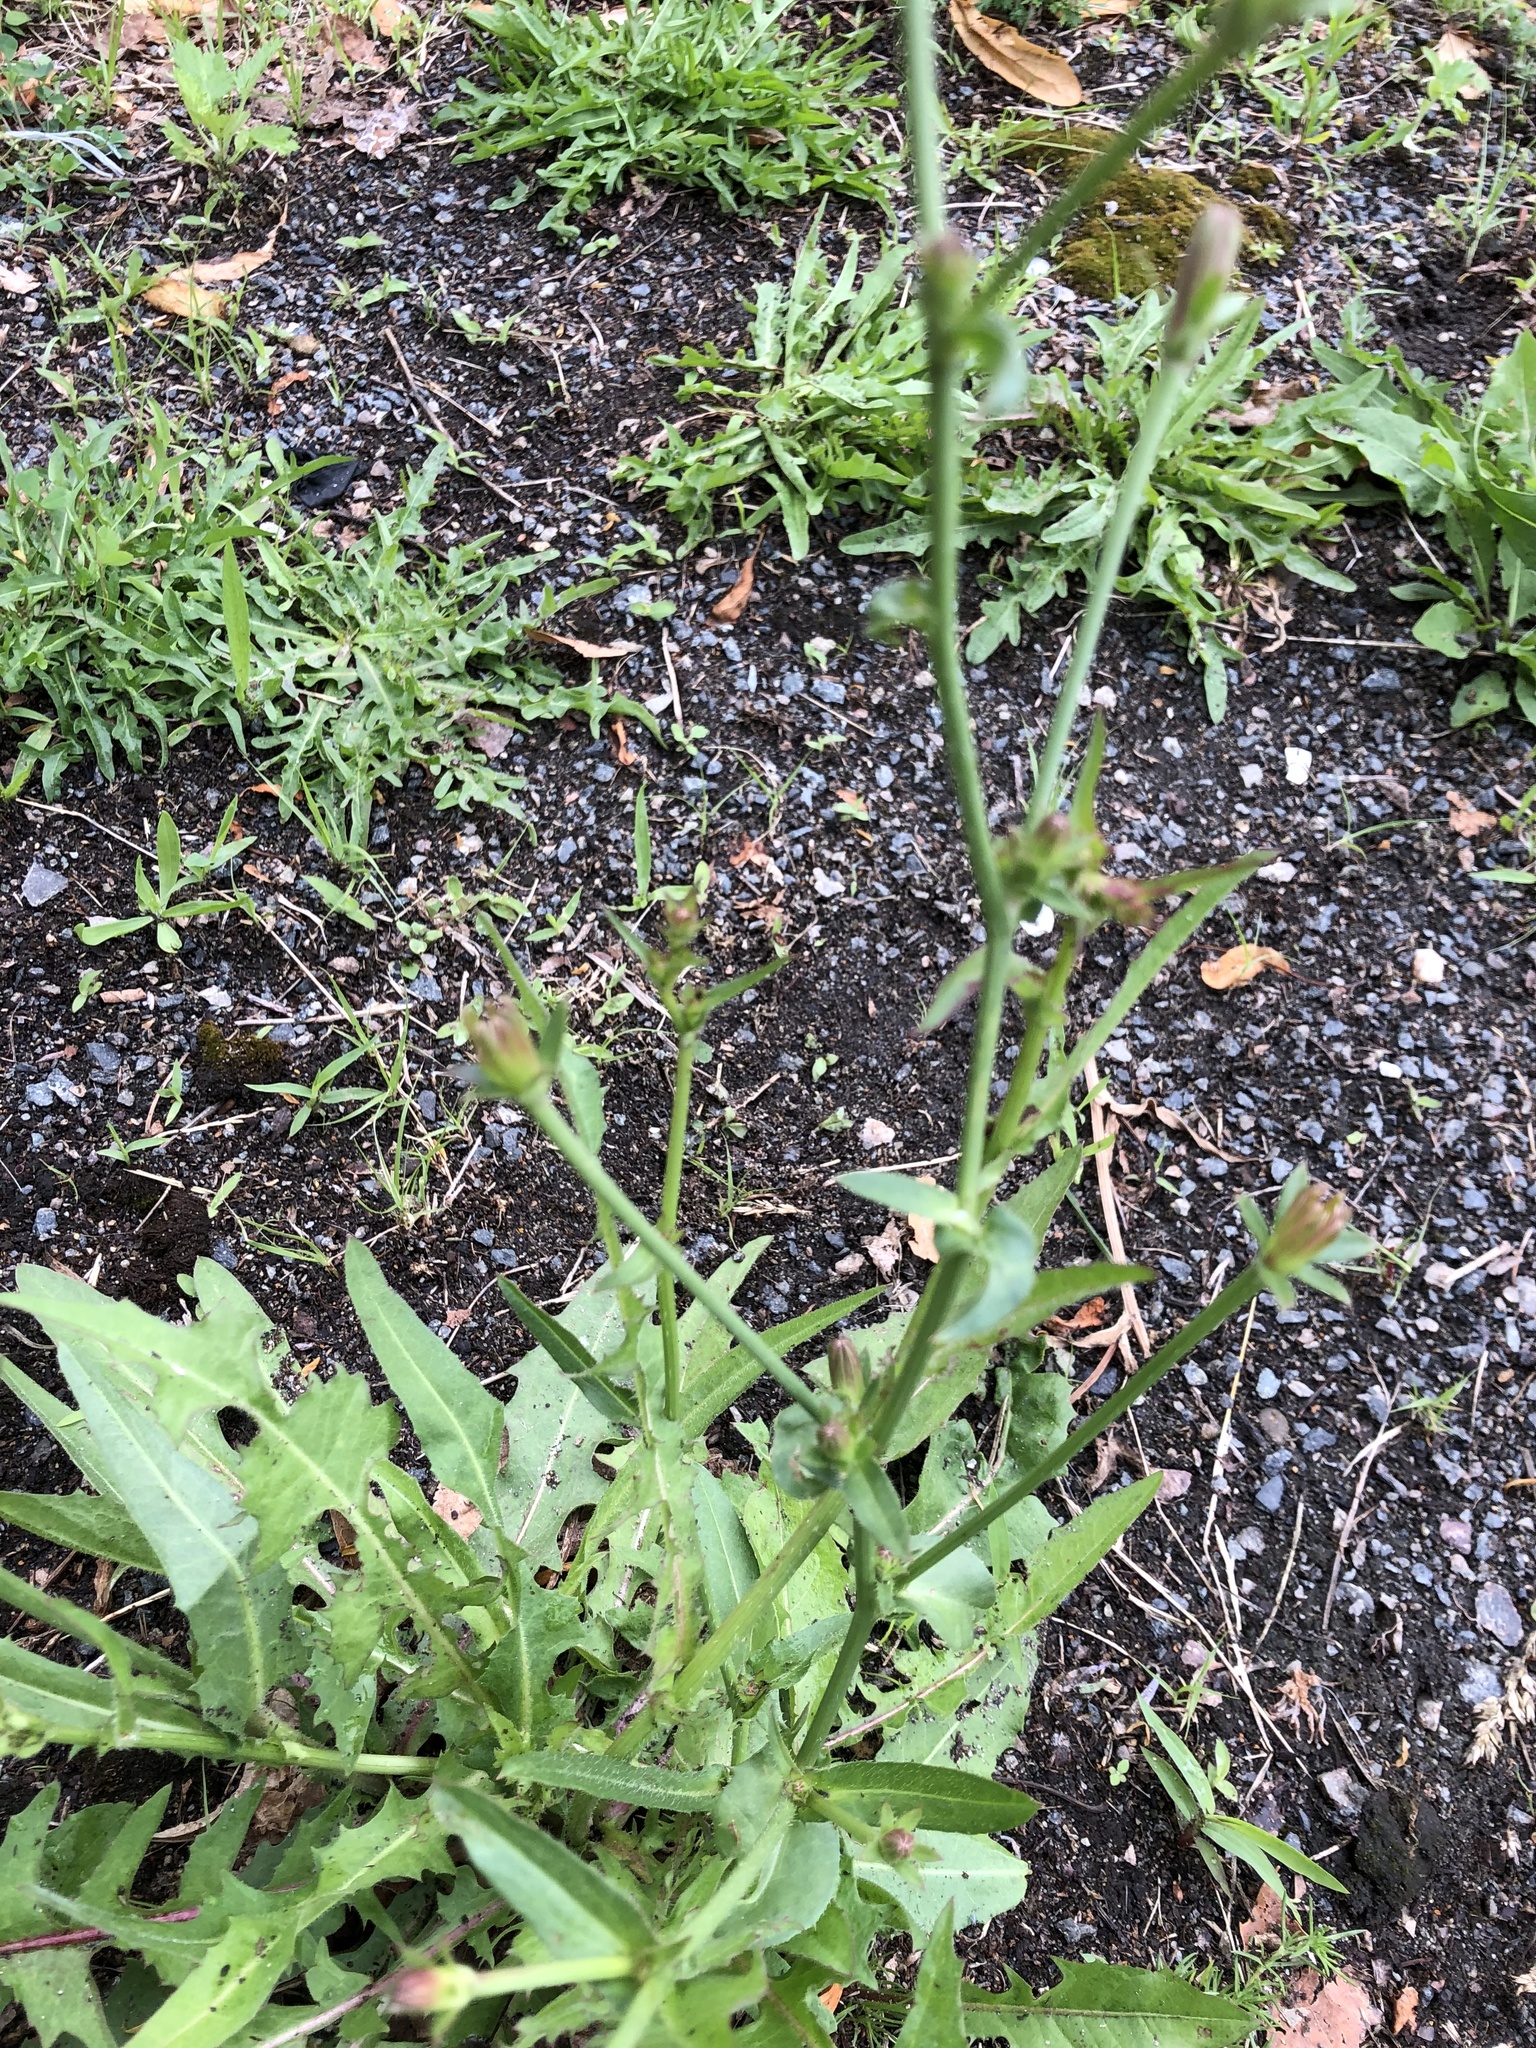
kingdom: Plantae
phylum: Tracheophyta
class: Magnoliopsida
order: Asterales
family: Asteraceae
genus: Cichorium
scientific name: Cichorium intybus
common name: Chicory
